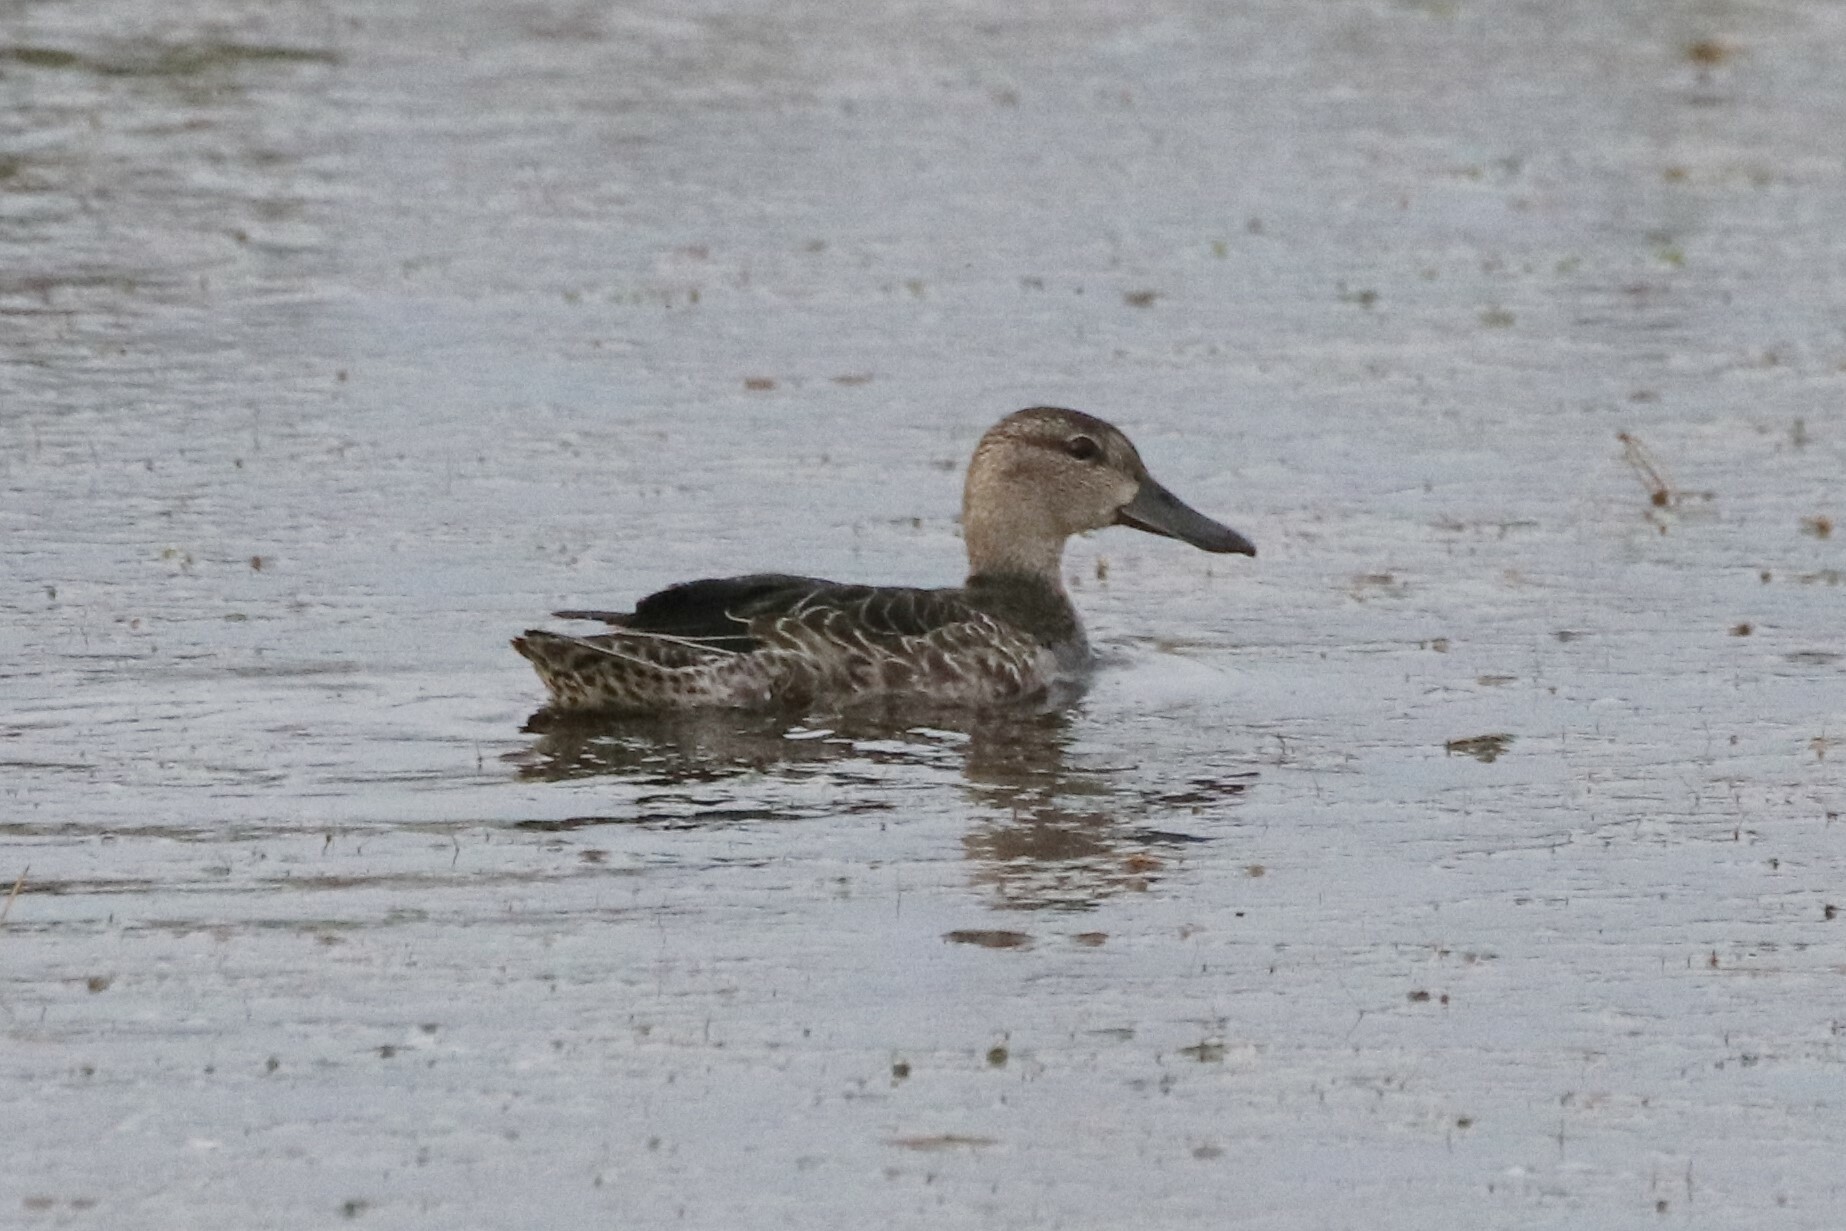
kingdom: Animalia
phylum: Chordata
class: Aves
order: Anseriformes
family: Anatidae
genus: Spatula
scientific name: Spatula discors
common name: Blue-winged teal
